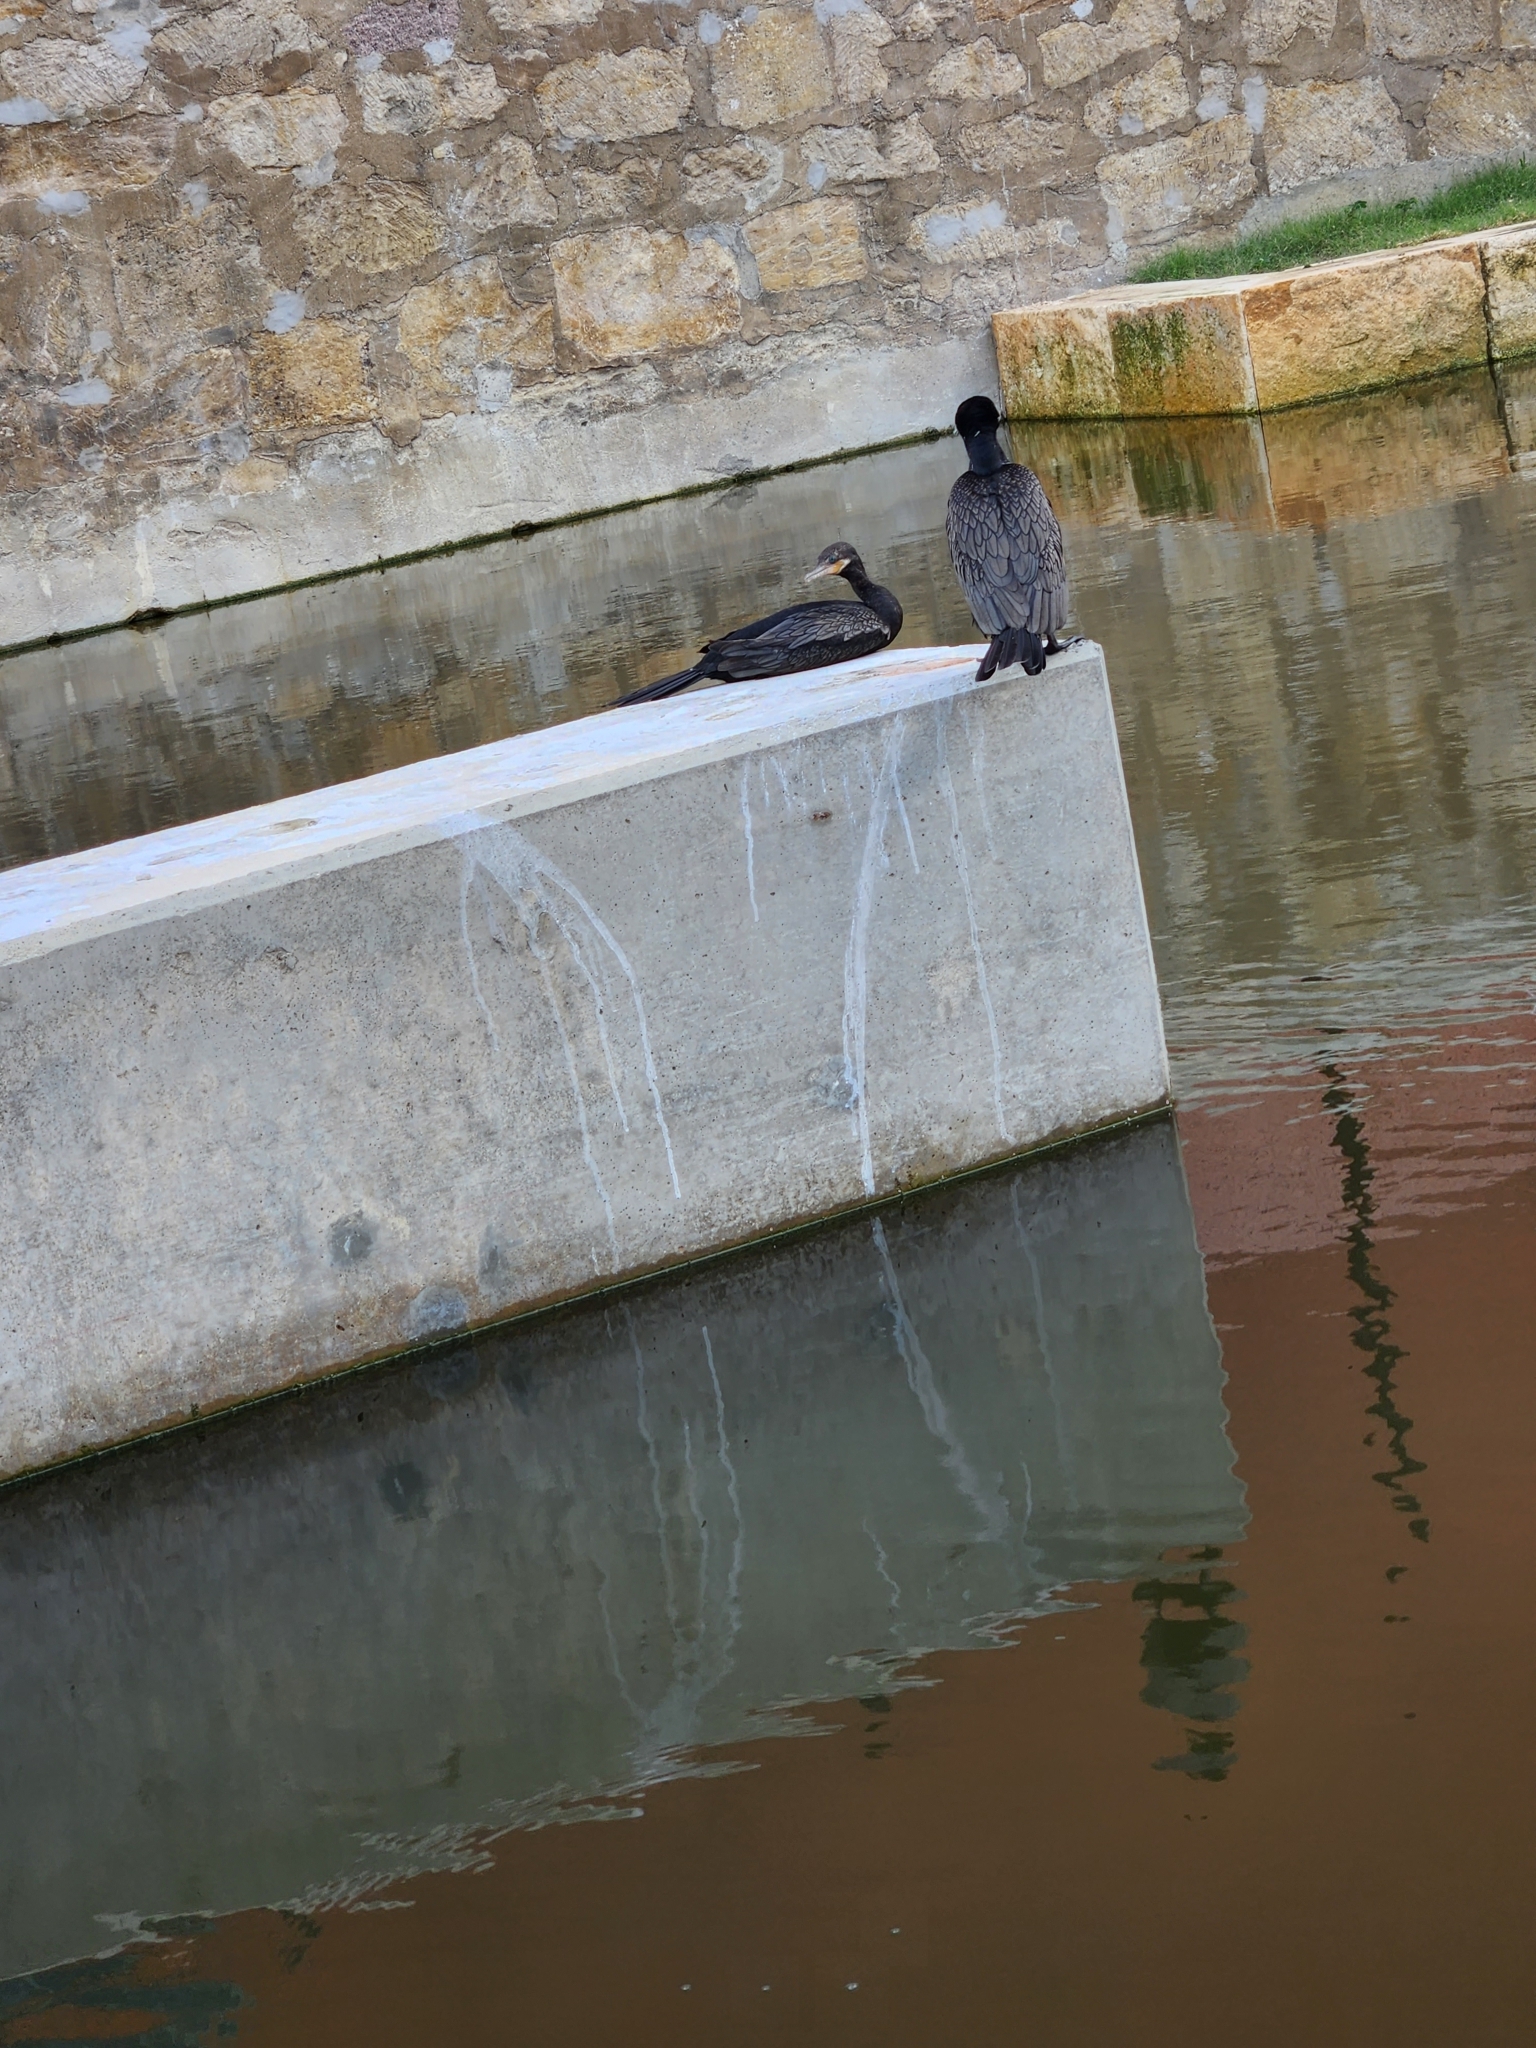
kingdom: Animalia
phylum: Chordata
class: Aves
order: Suliformes
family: Phalacrocoracidae
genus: Phalacrocorax
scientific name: Phalacrocorax brasilianus
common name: Neotropic cormorant
